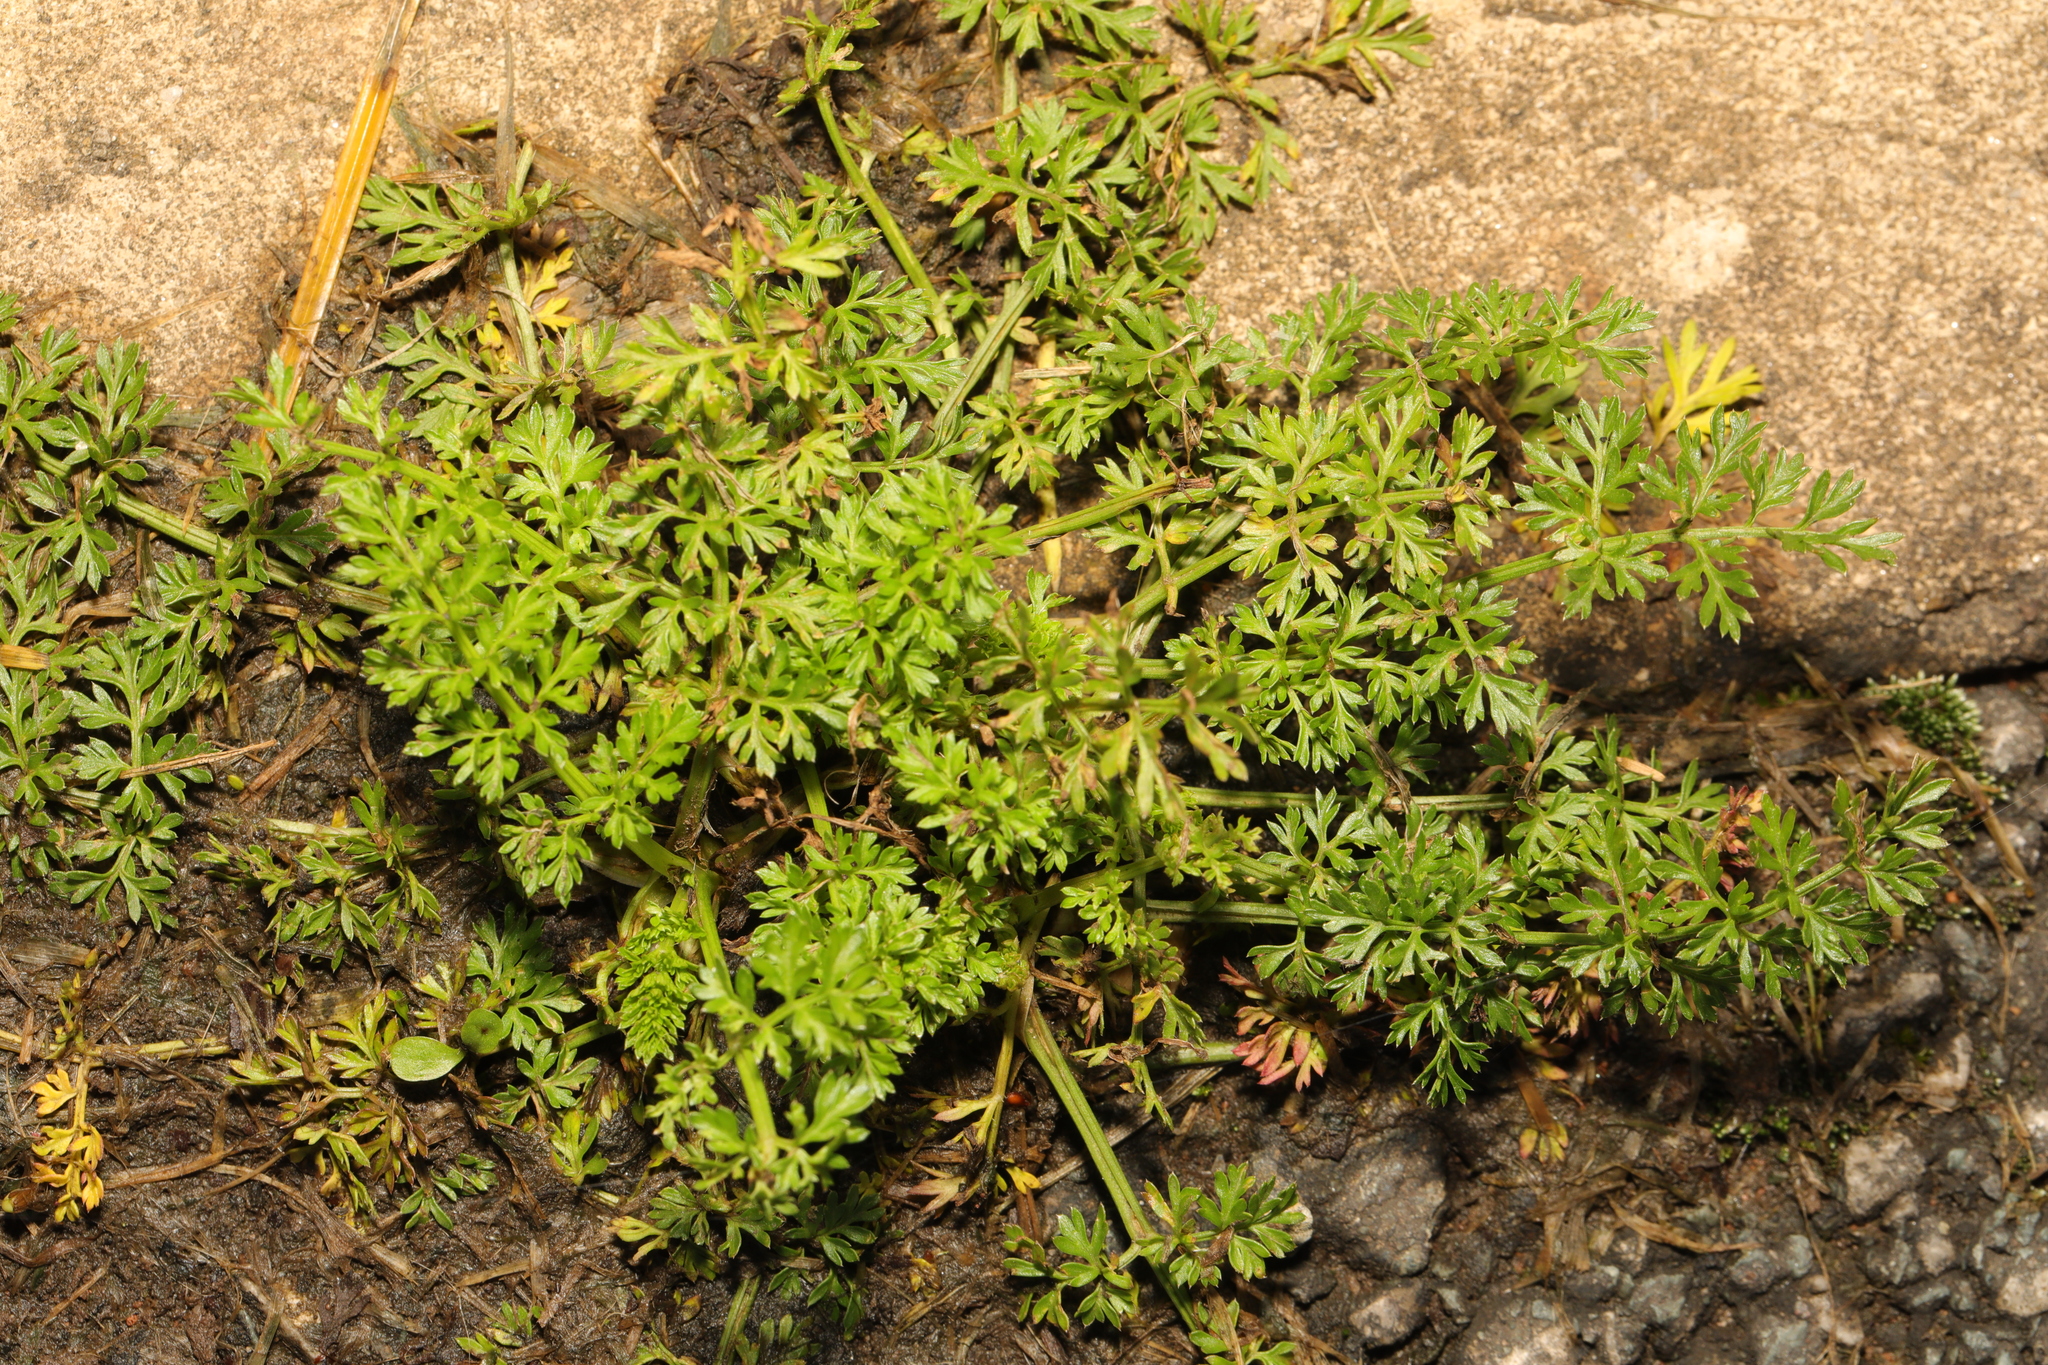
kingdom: Plantae
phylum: Tracheophyta
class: Magnoliopsida
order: Apiales
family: Apiaceae
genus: Daucus
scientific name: Daucus carota
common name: Wild carrot
